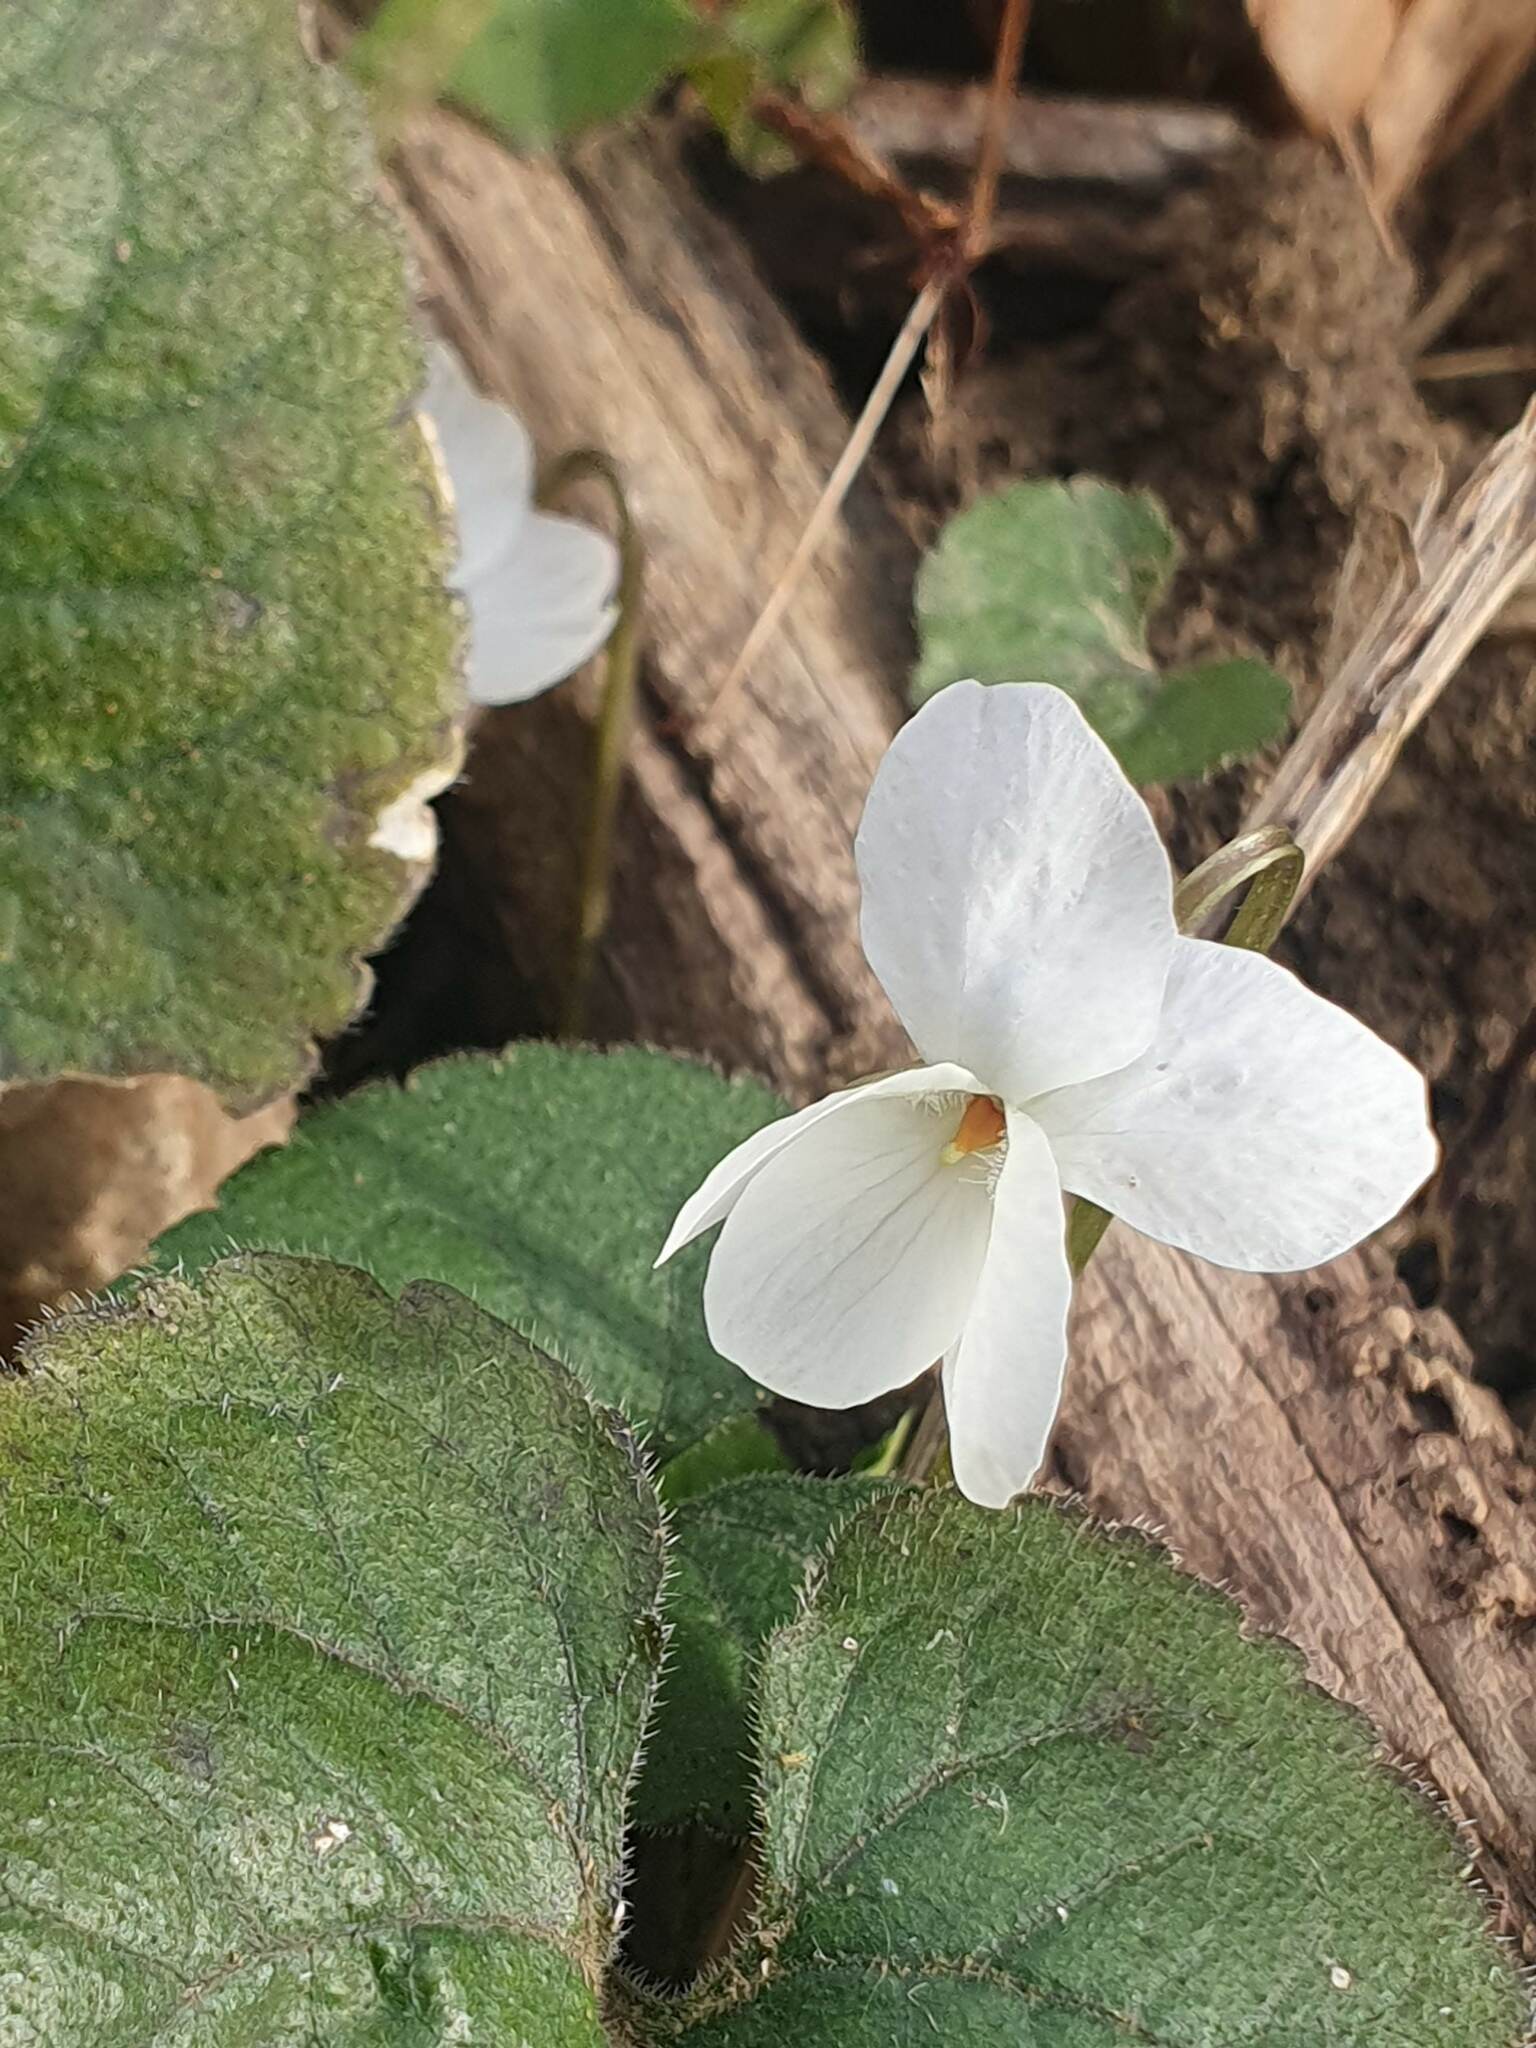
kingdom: Plantae
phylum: Tracheophyta
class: Magnoliopsida
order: Malpighiales
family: Violaceae
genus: Viola
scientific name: Viola alba
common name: White violet
